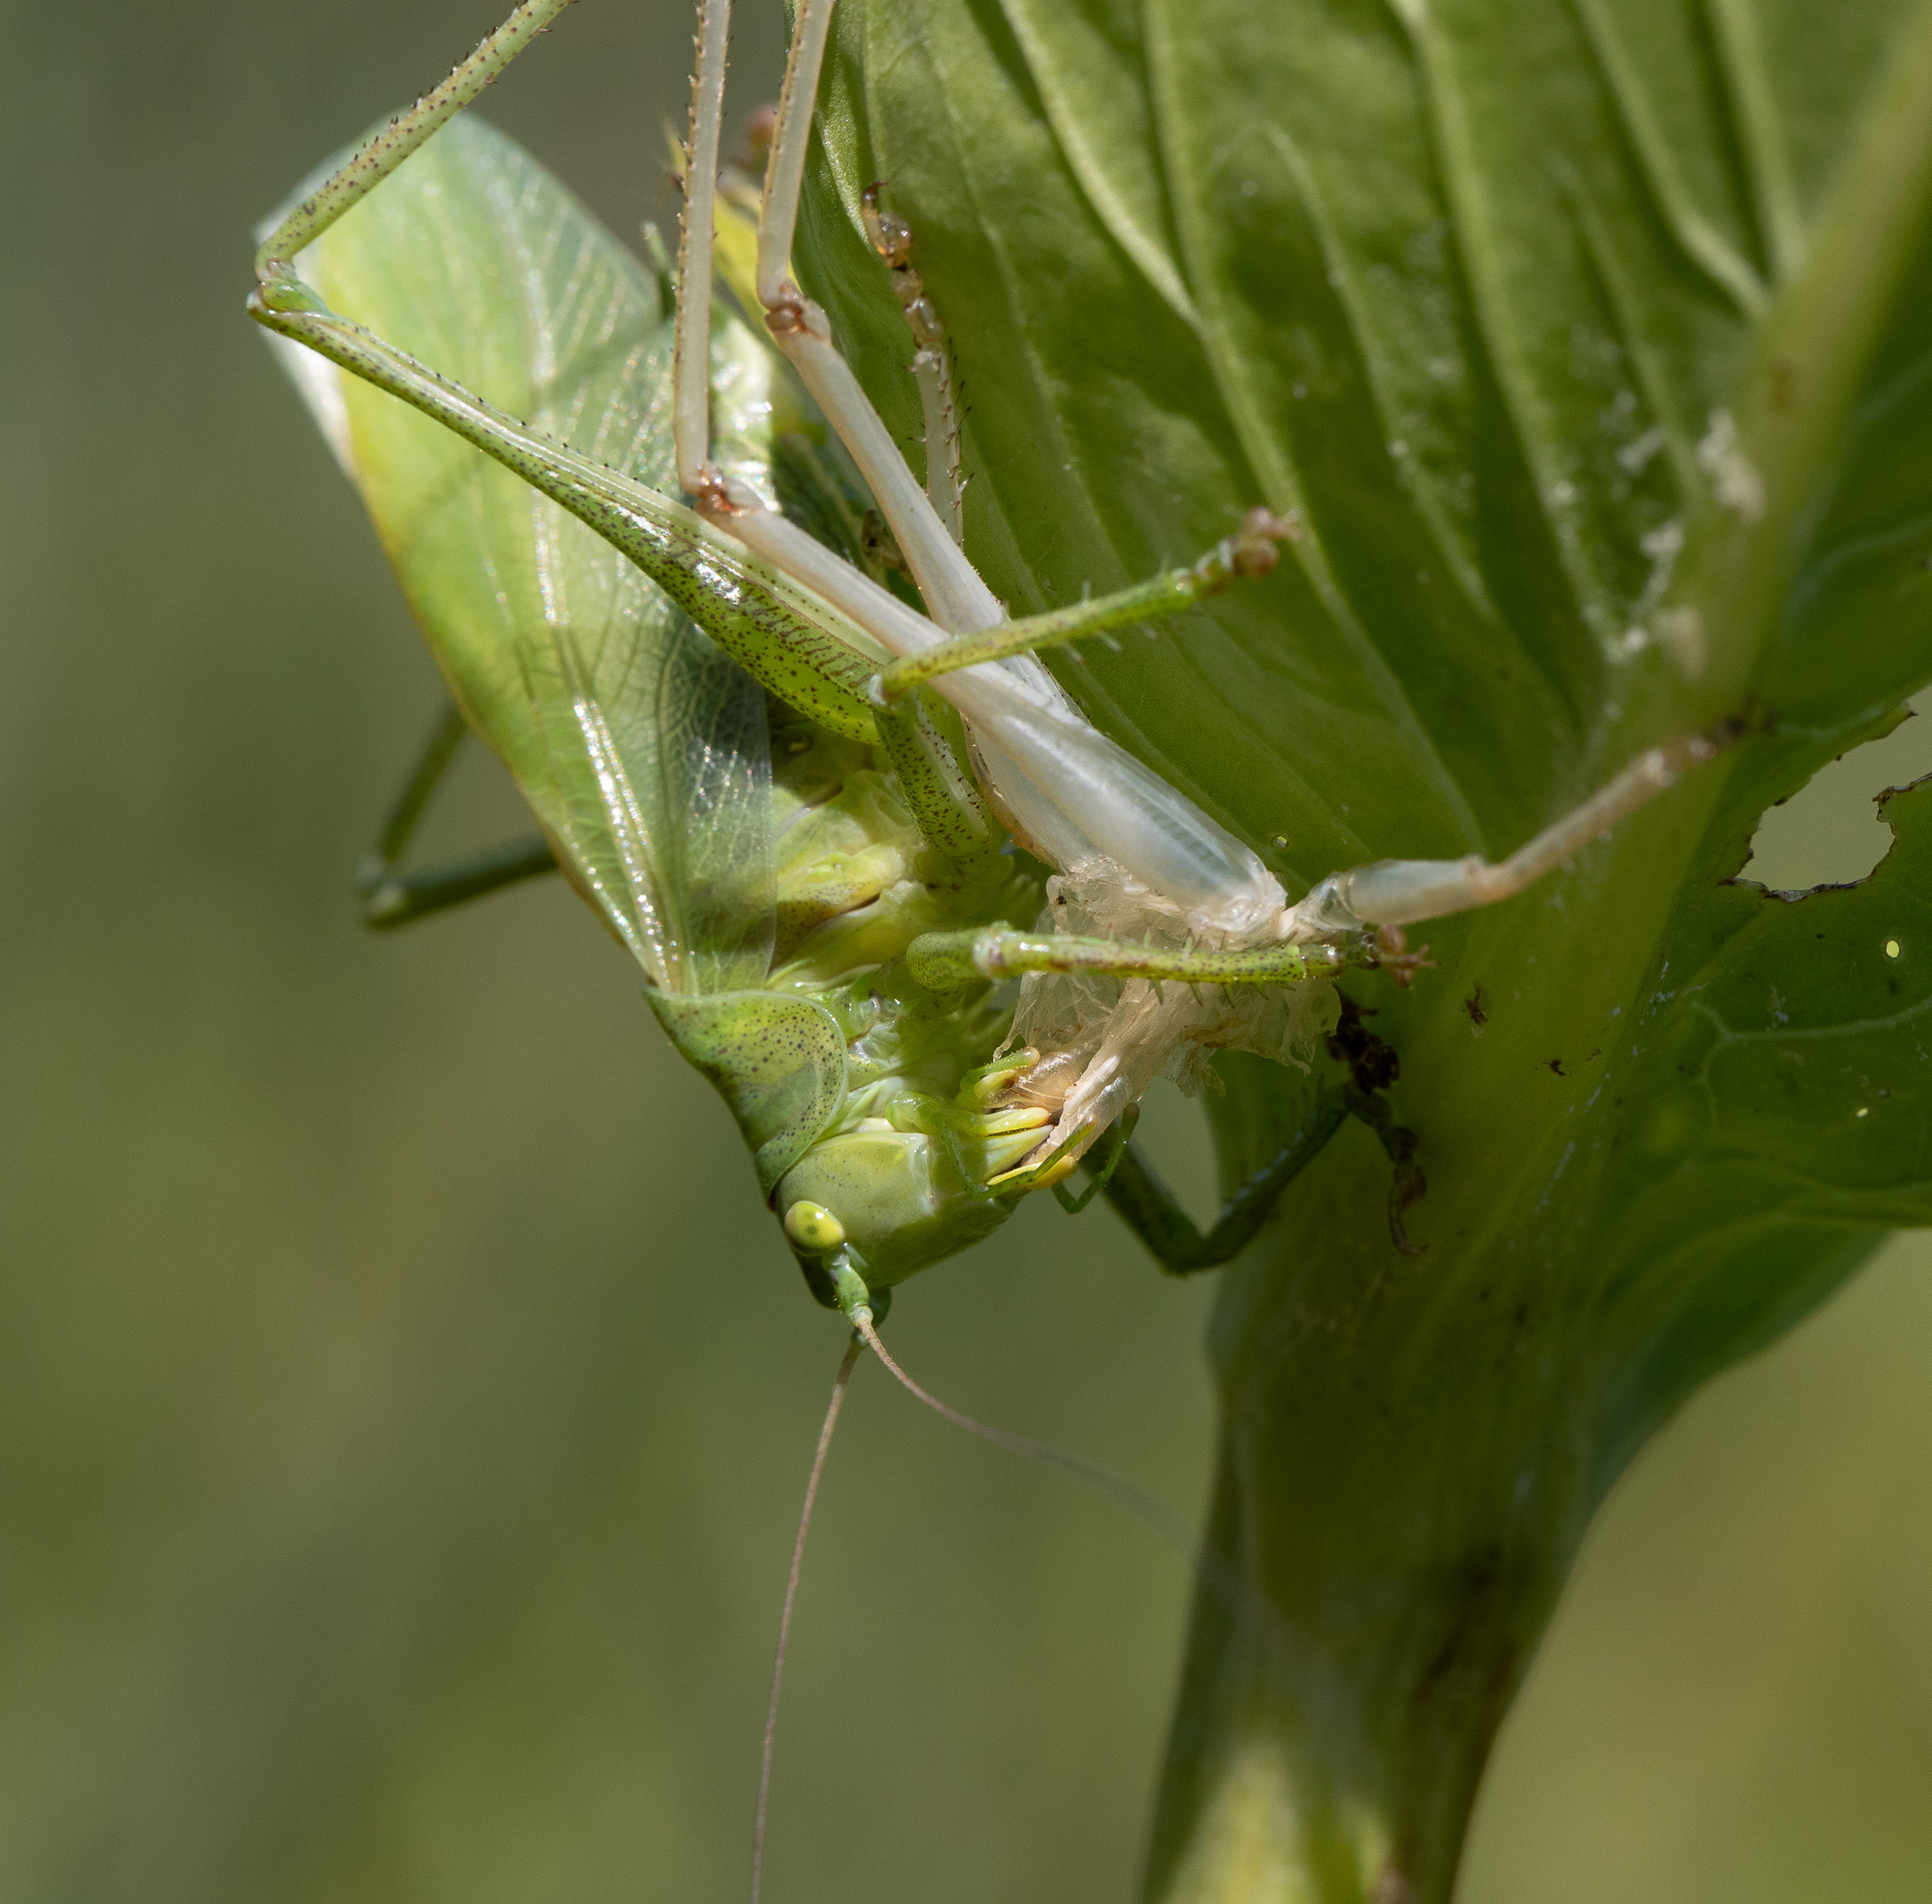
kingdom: Animalia
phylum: Arthropoda
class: Insecta
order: Orthoptera
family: Tettigoniidae
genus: Tettigonia
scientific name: Tettigonia cantans
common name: Upland green bush-cricket
